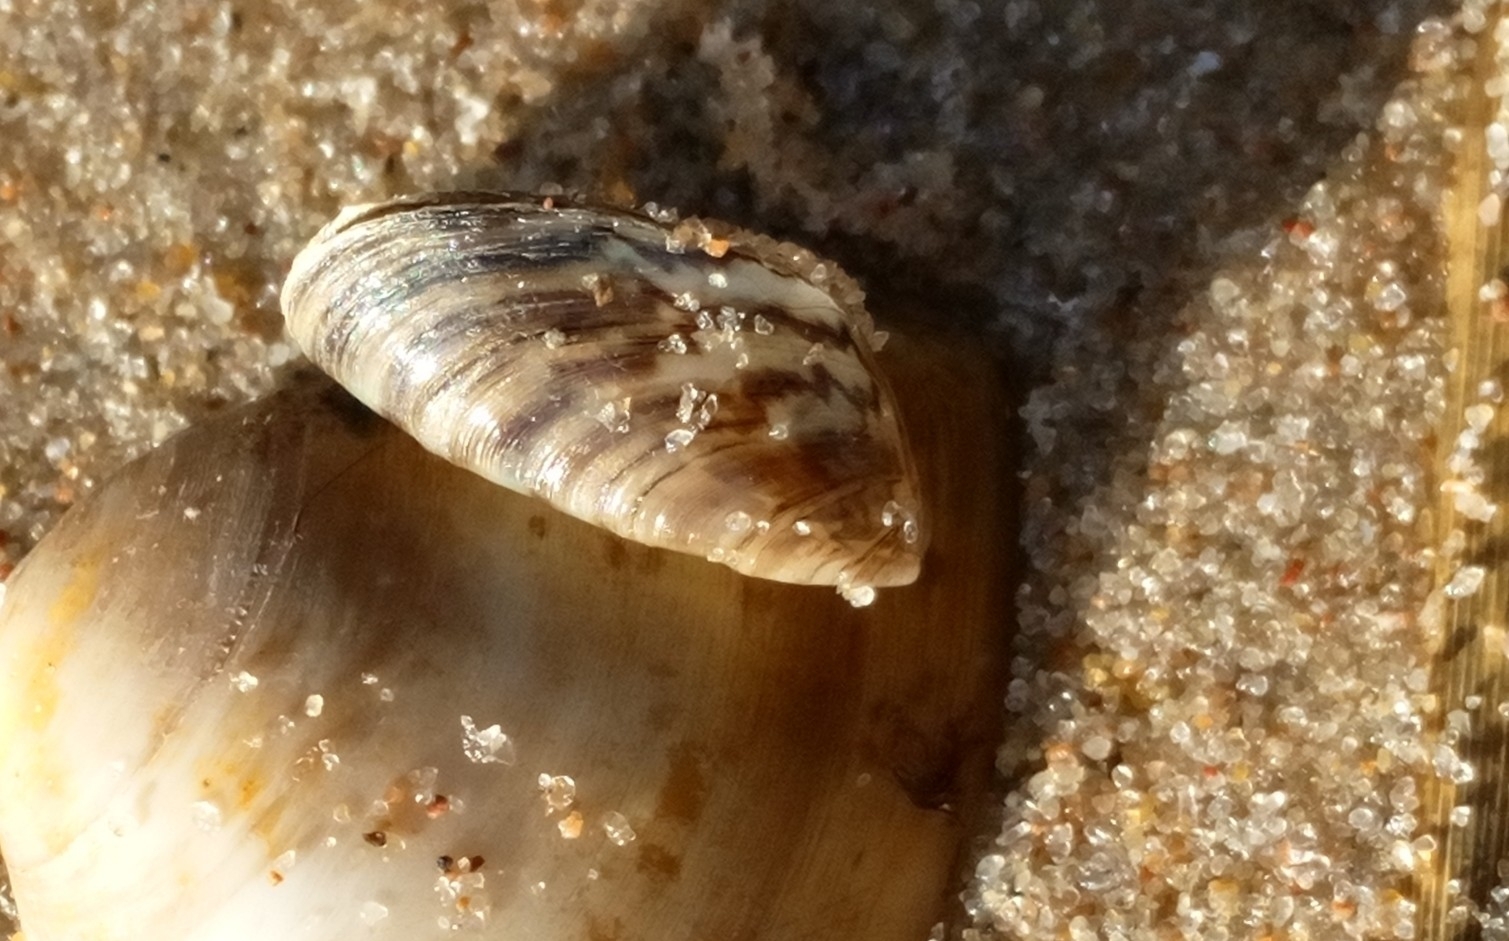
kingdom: Animalia
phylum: Mollusca
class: Bivalvia
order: Myida
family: Dreissenidae
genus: Dreissena
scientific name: Dreissena polymorpha
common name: Zebra mussel
